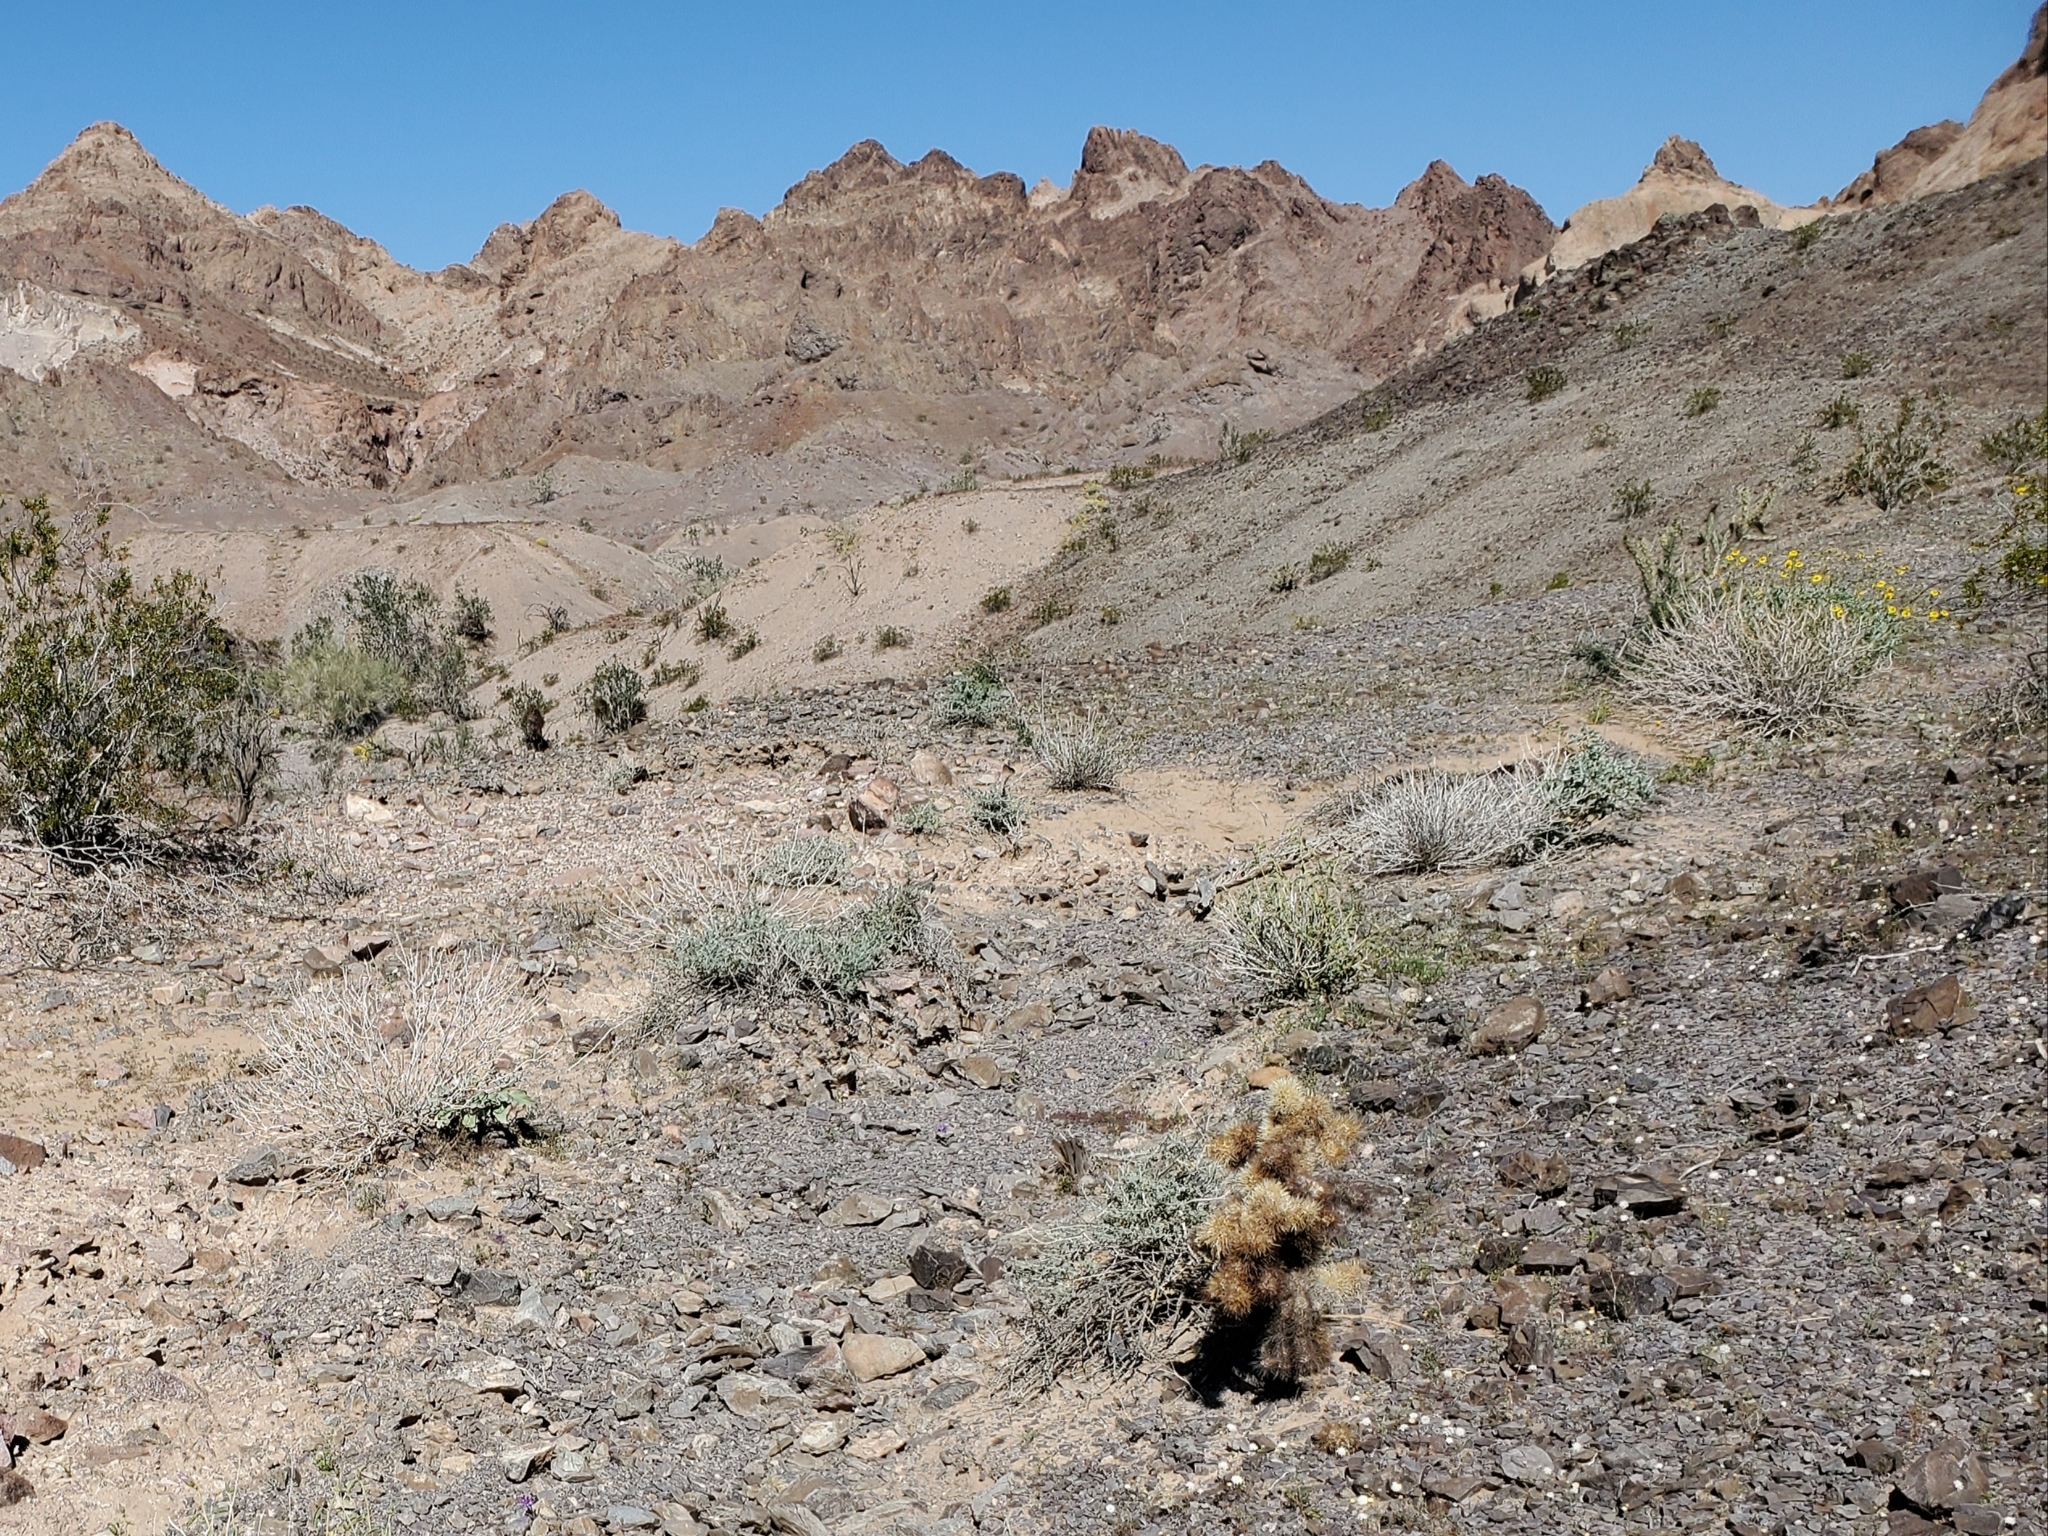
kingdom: Plantae
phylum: Tracheophyta
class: Magnoliopsida
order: Caryophyllales
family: Cactaceae
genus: Cylindropuntia
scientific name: Cylindropuntia fosbergii
